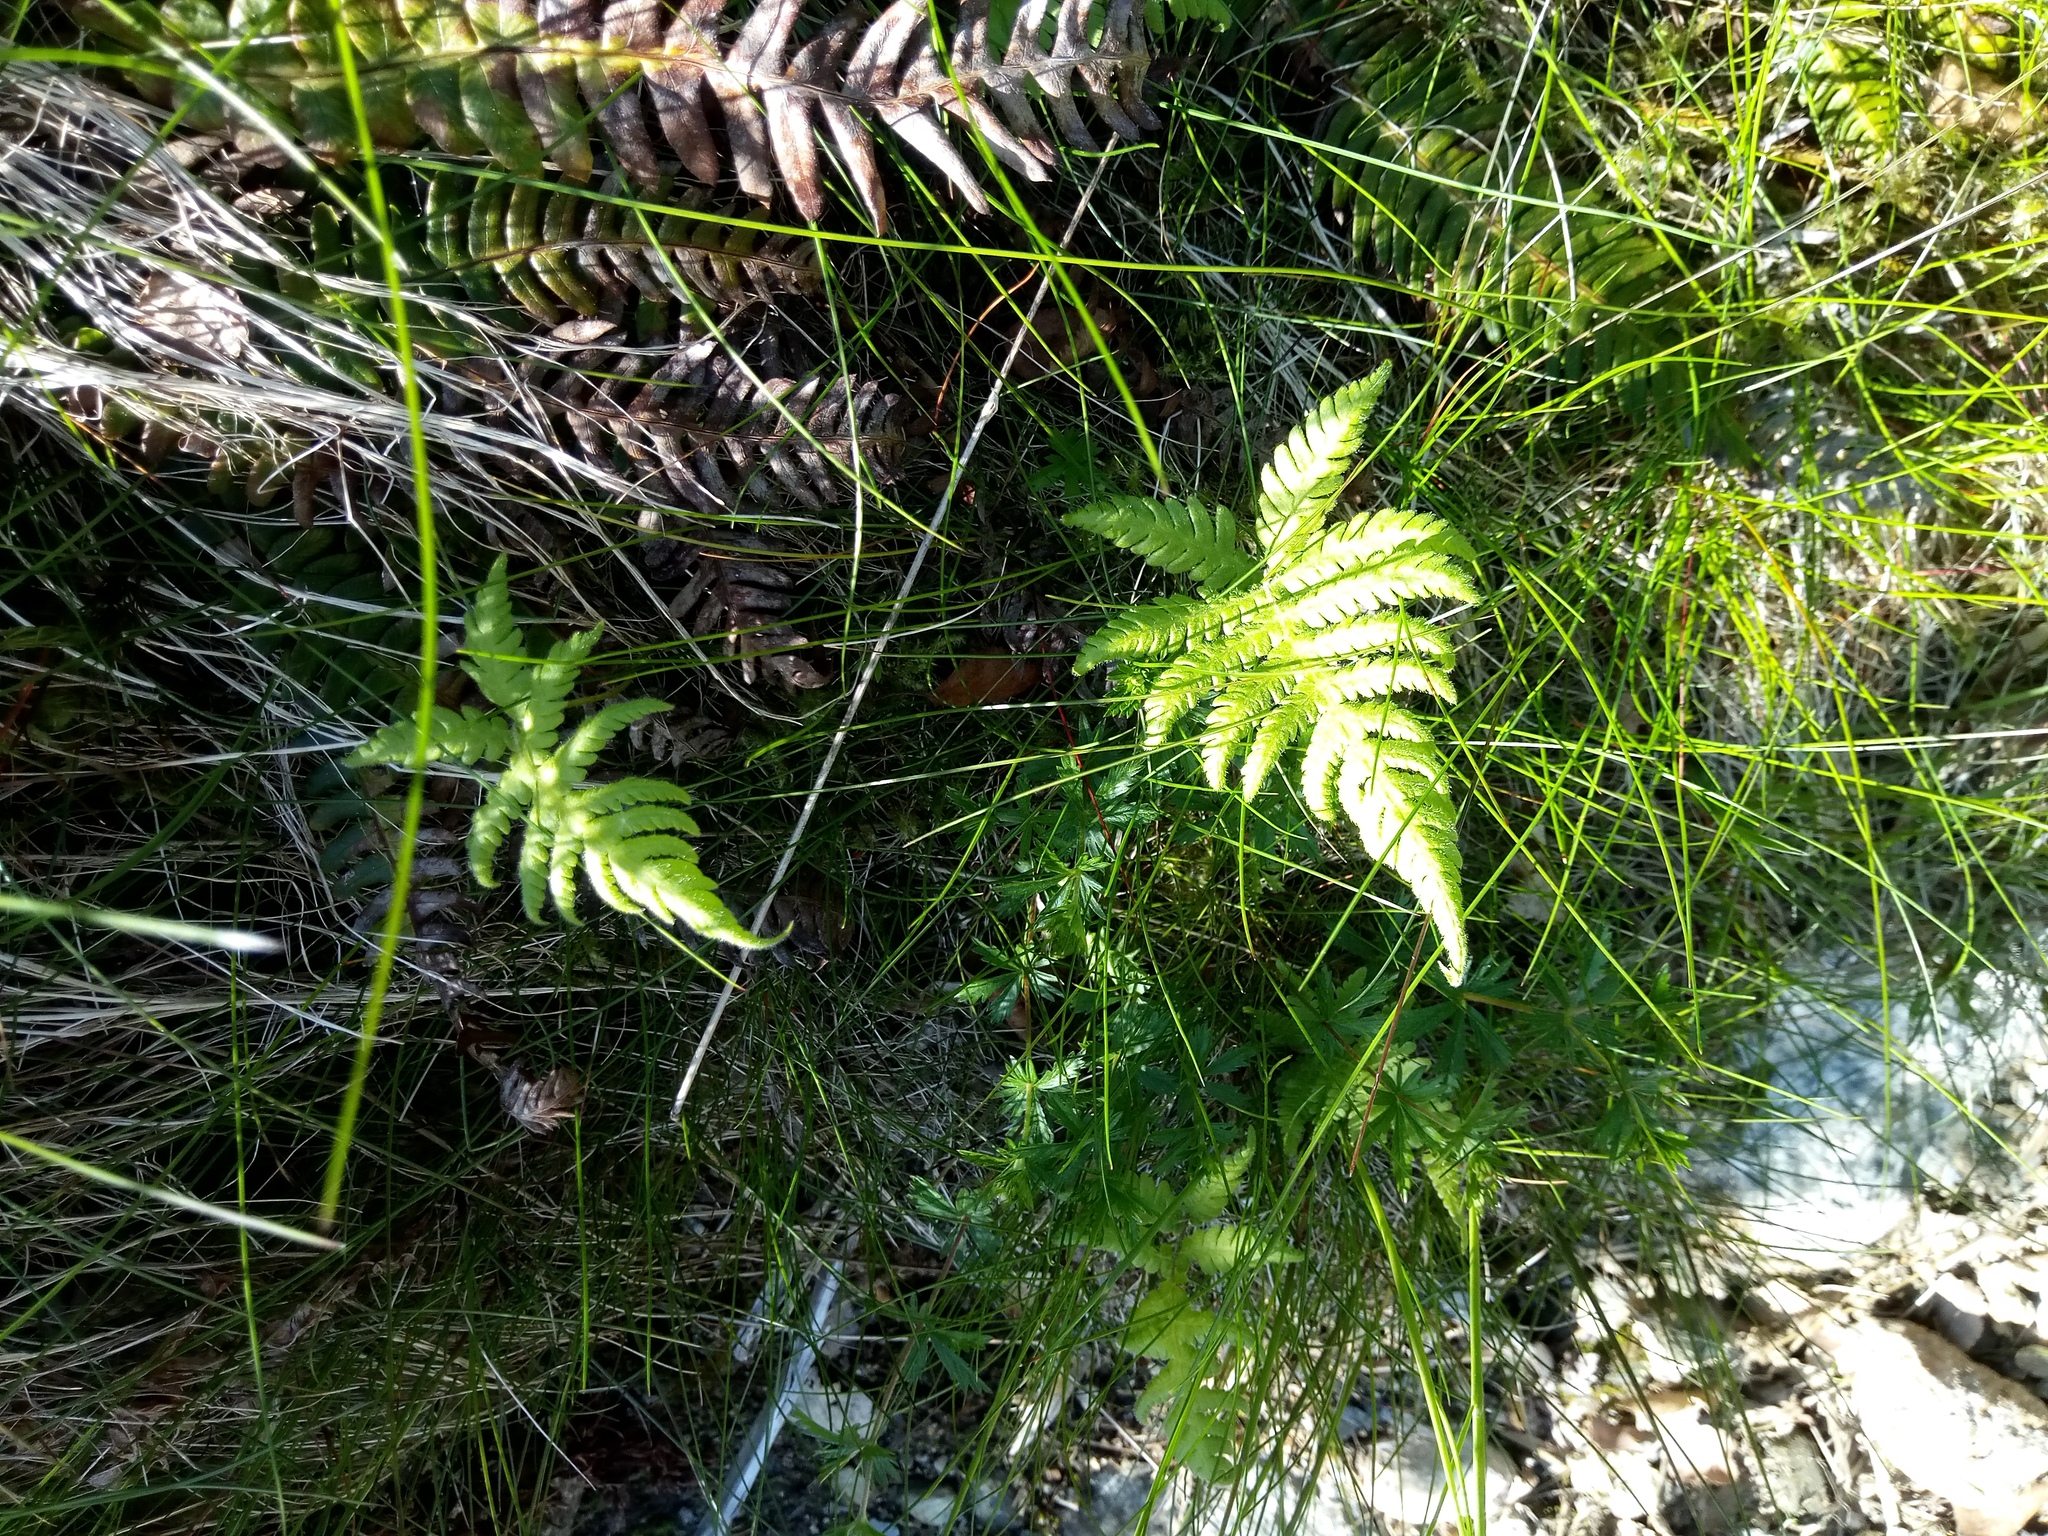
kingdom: Plantae
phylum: Tracheophyta
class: Polypodiopsida
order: Polypodiales
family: Thelypteridaceae
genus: Phegopteris
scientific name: Phegopteris connectilis
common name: Beech fern
